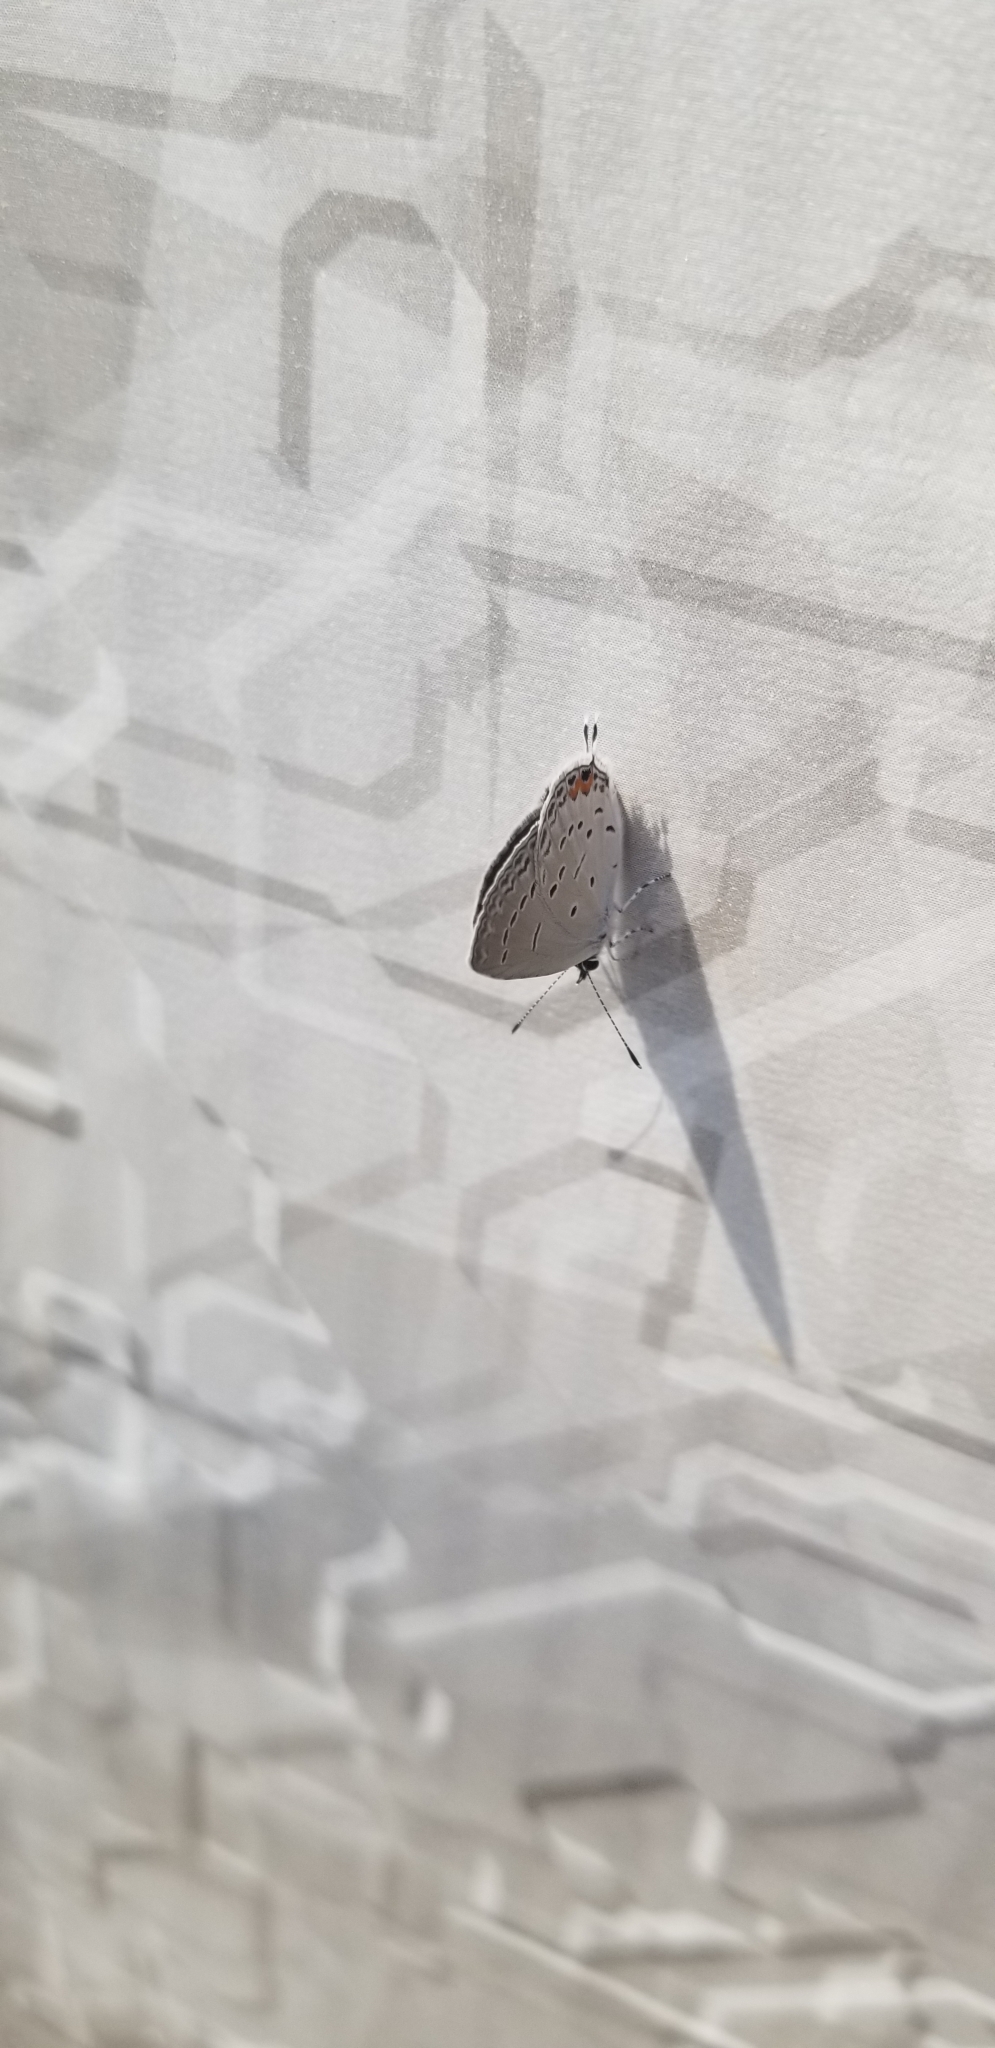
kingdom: Animalia
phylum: Arthropoda
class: Insecta
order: Lepidoptera
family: Lycaenidae
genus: Elkalyce
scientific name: Elkalyce comyntas
